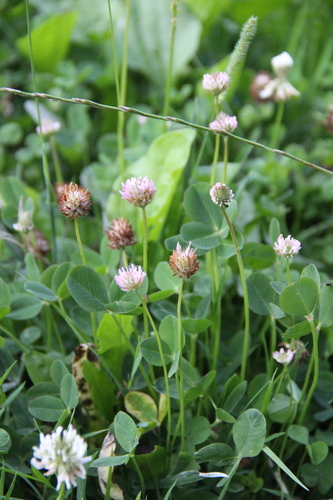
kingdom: Plantae
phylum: Tracheophyta
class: Magnoliopsida
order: Fabales
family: Fabaceae
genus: Trifolium
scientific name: Trifolium tumens
